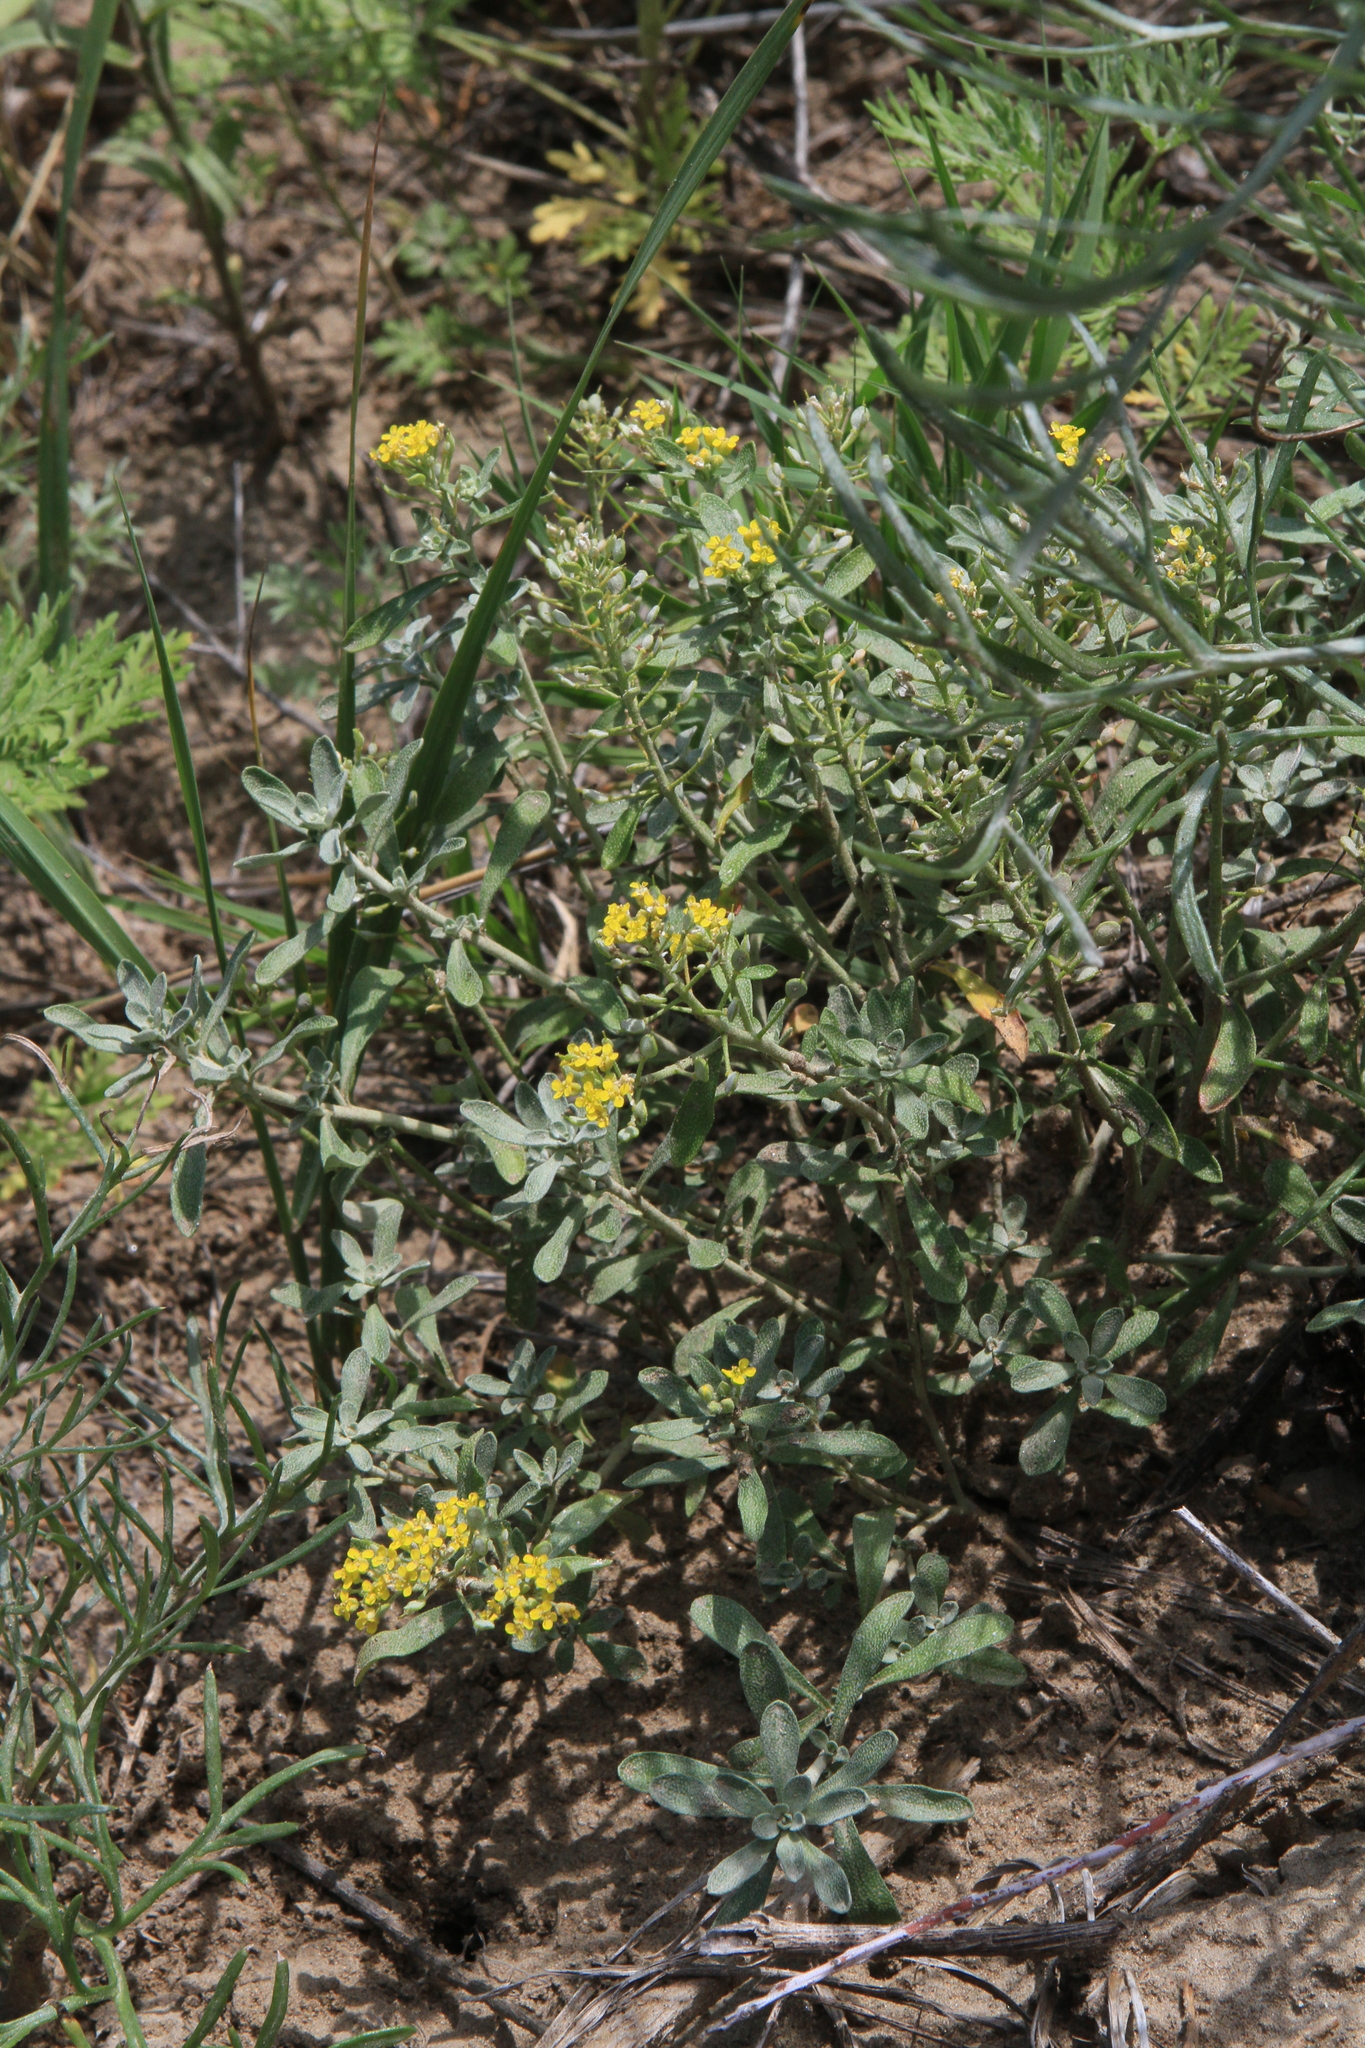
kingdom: Plantae
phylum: Tracheophyta
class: Magnoliopsida
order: Brassicales
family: Brassicaceae
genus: Odontarrhena
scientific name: Odontarrhena obovata
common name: American alyssum
